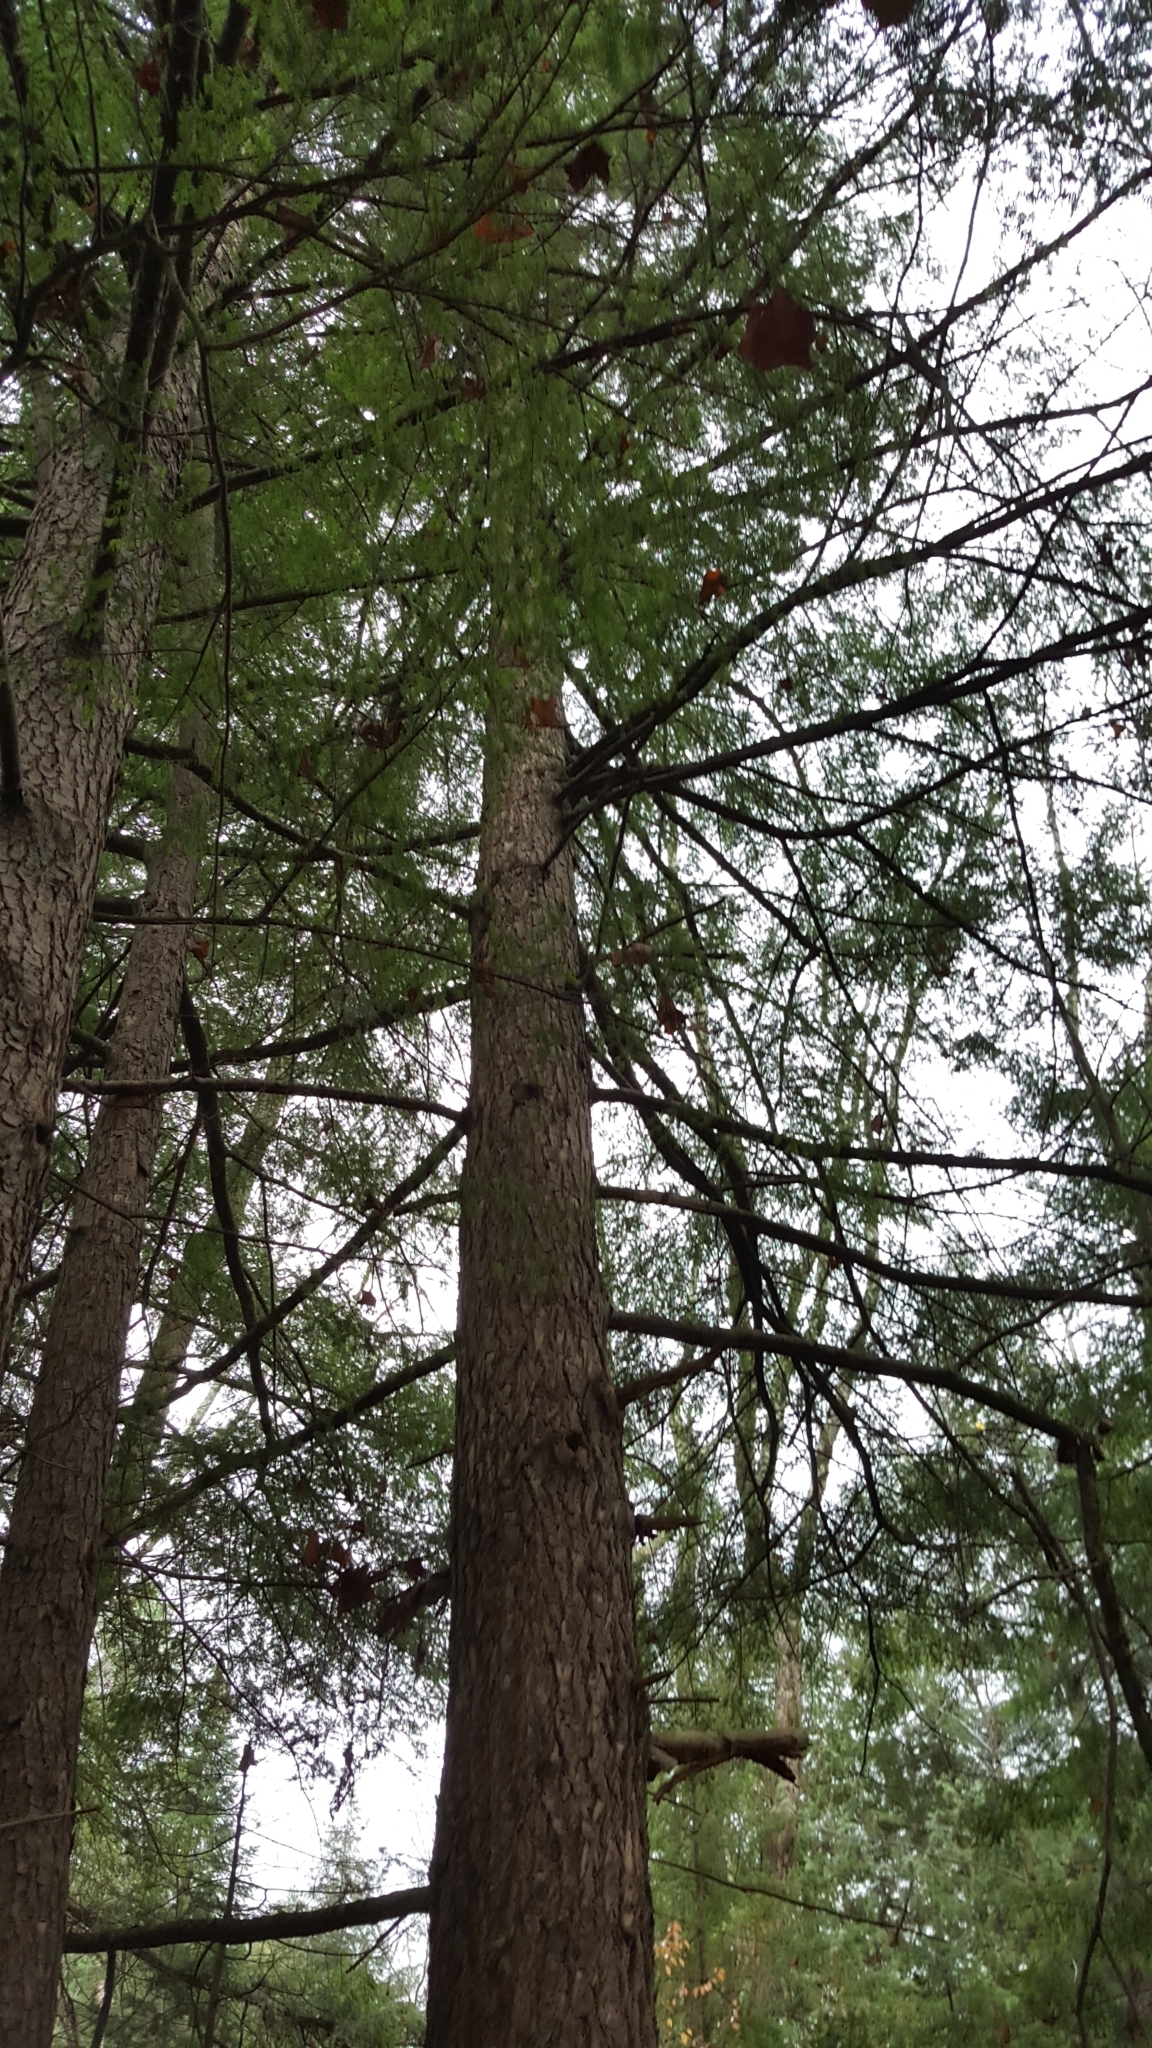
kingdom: Plantae
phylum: Tracheophyta
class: Pinopsida
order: Pinales
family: Pinaceae
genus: Tsuga
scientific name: Tsuga canadensis
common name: Eastern hemlock
